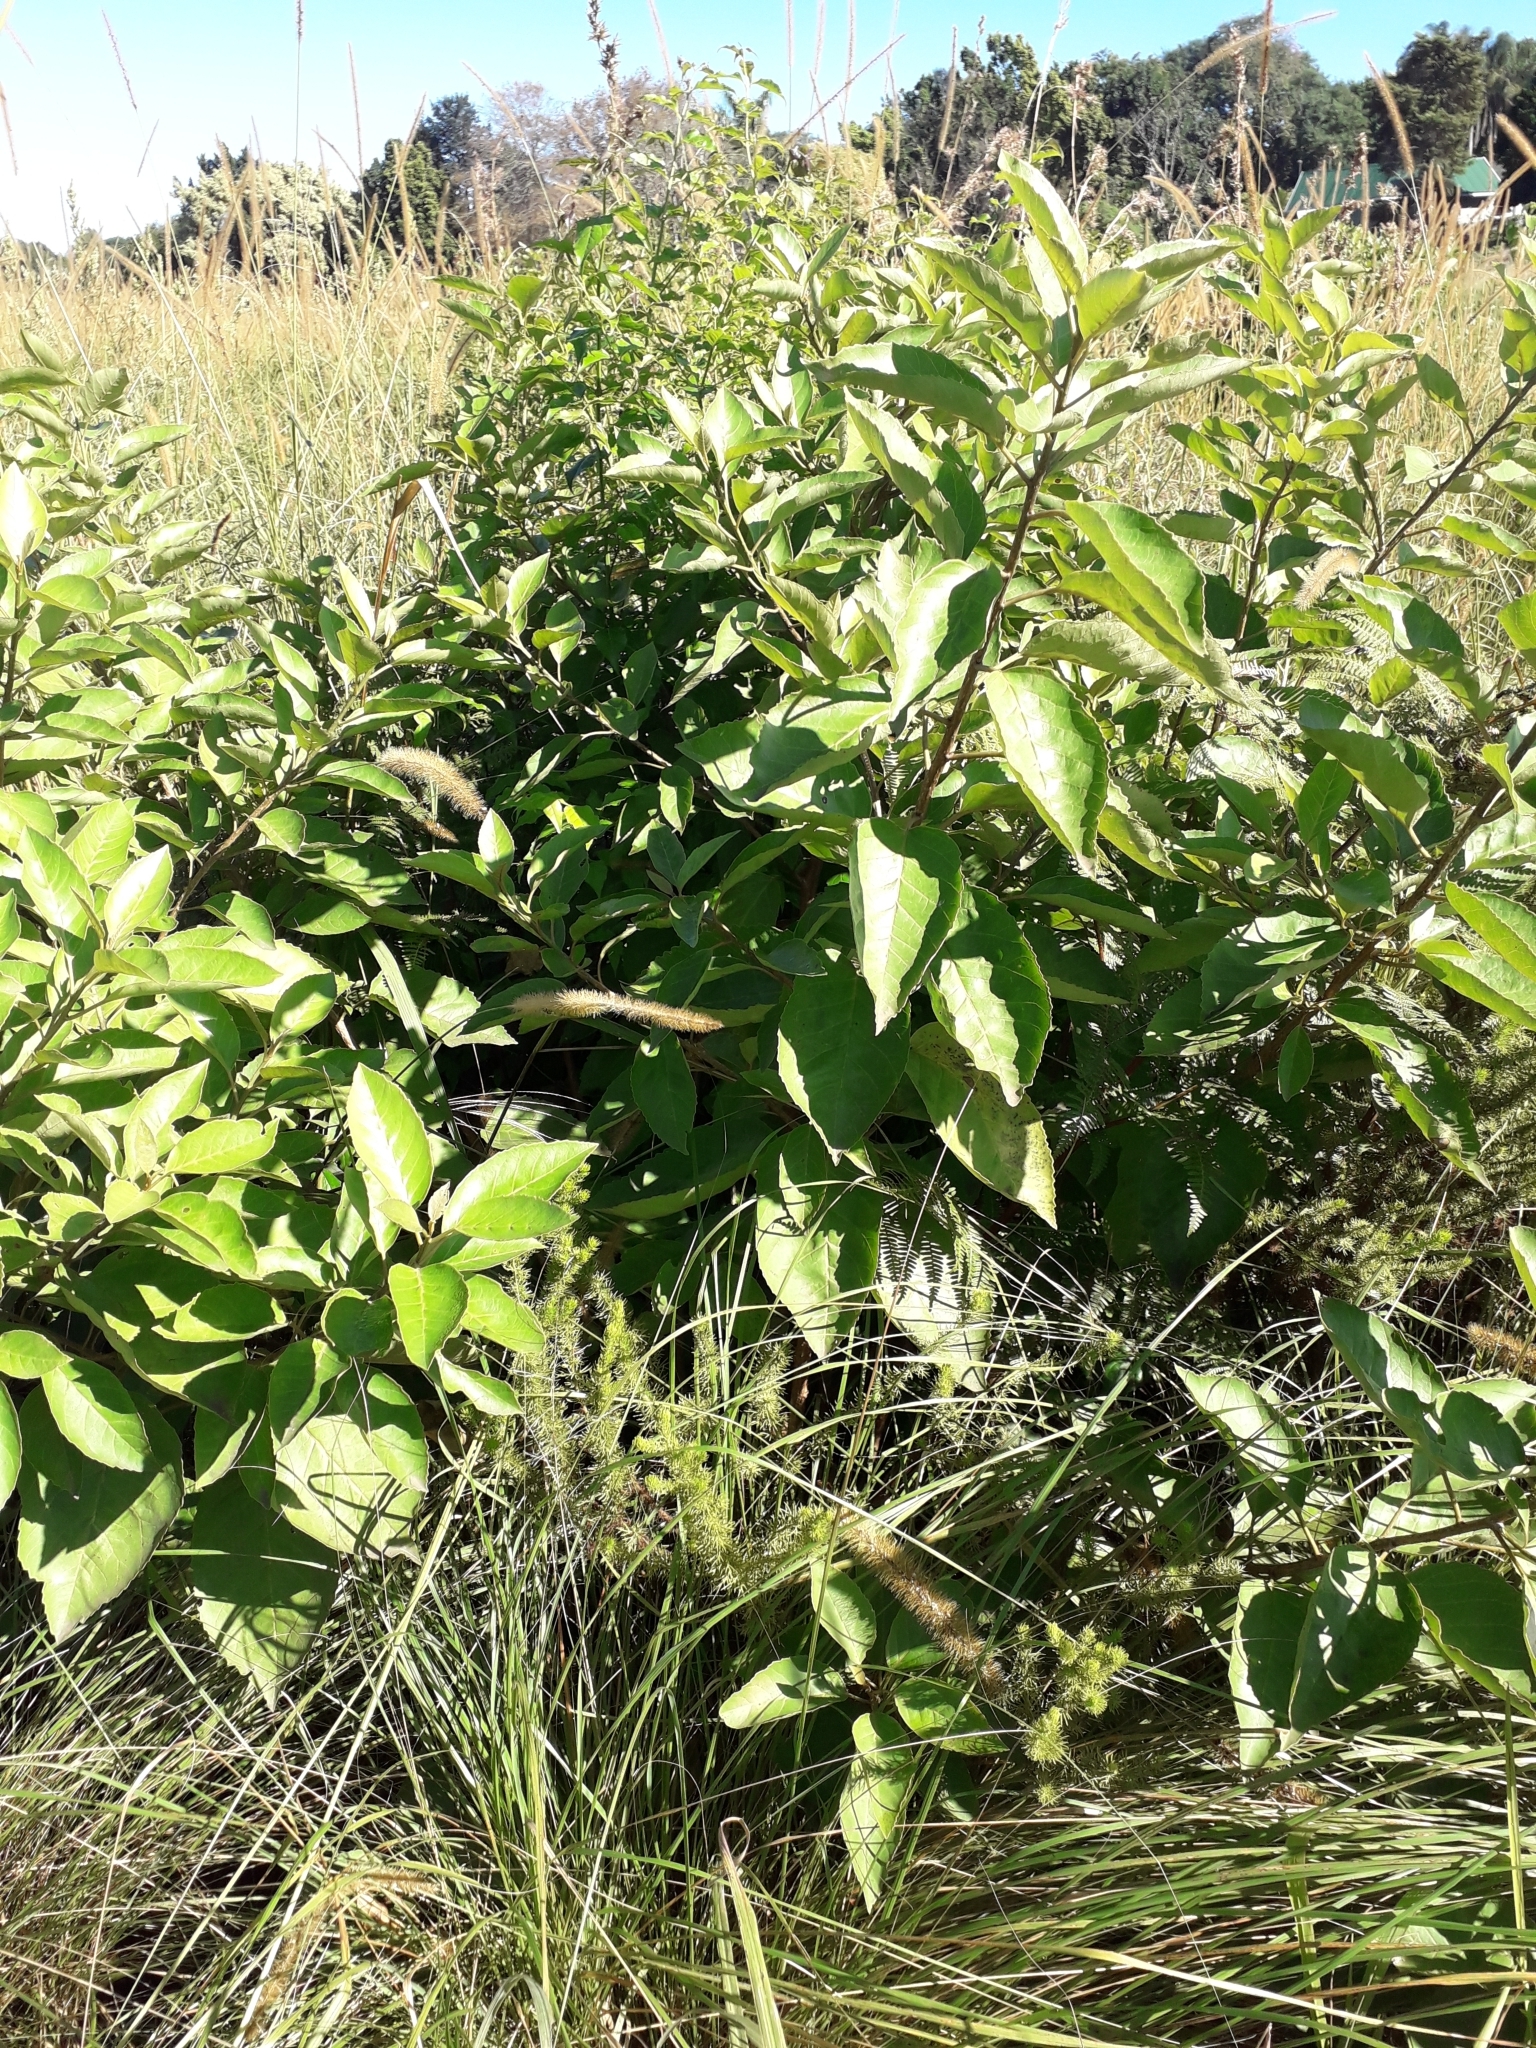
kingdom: Plantae
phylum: Tracheophyta
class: Magnoliopsida
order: Ericales
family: Primulaceae
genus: Maesa
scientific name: Maesa lanceolata
